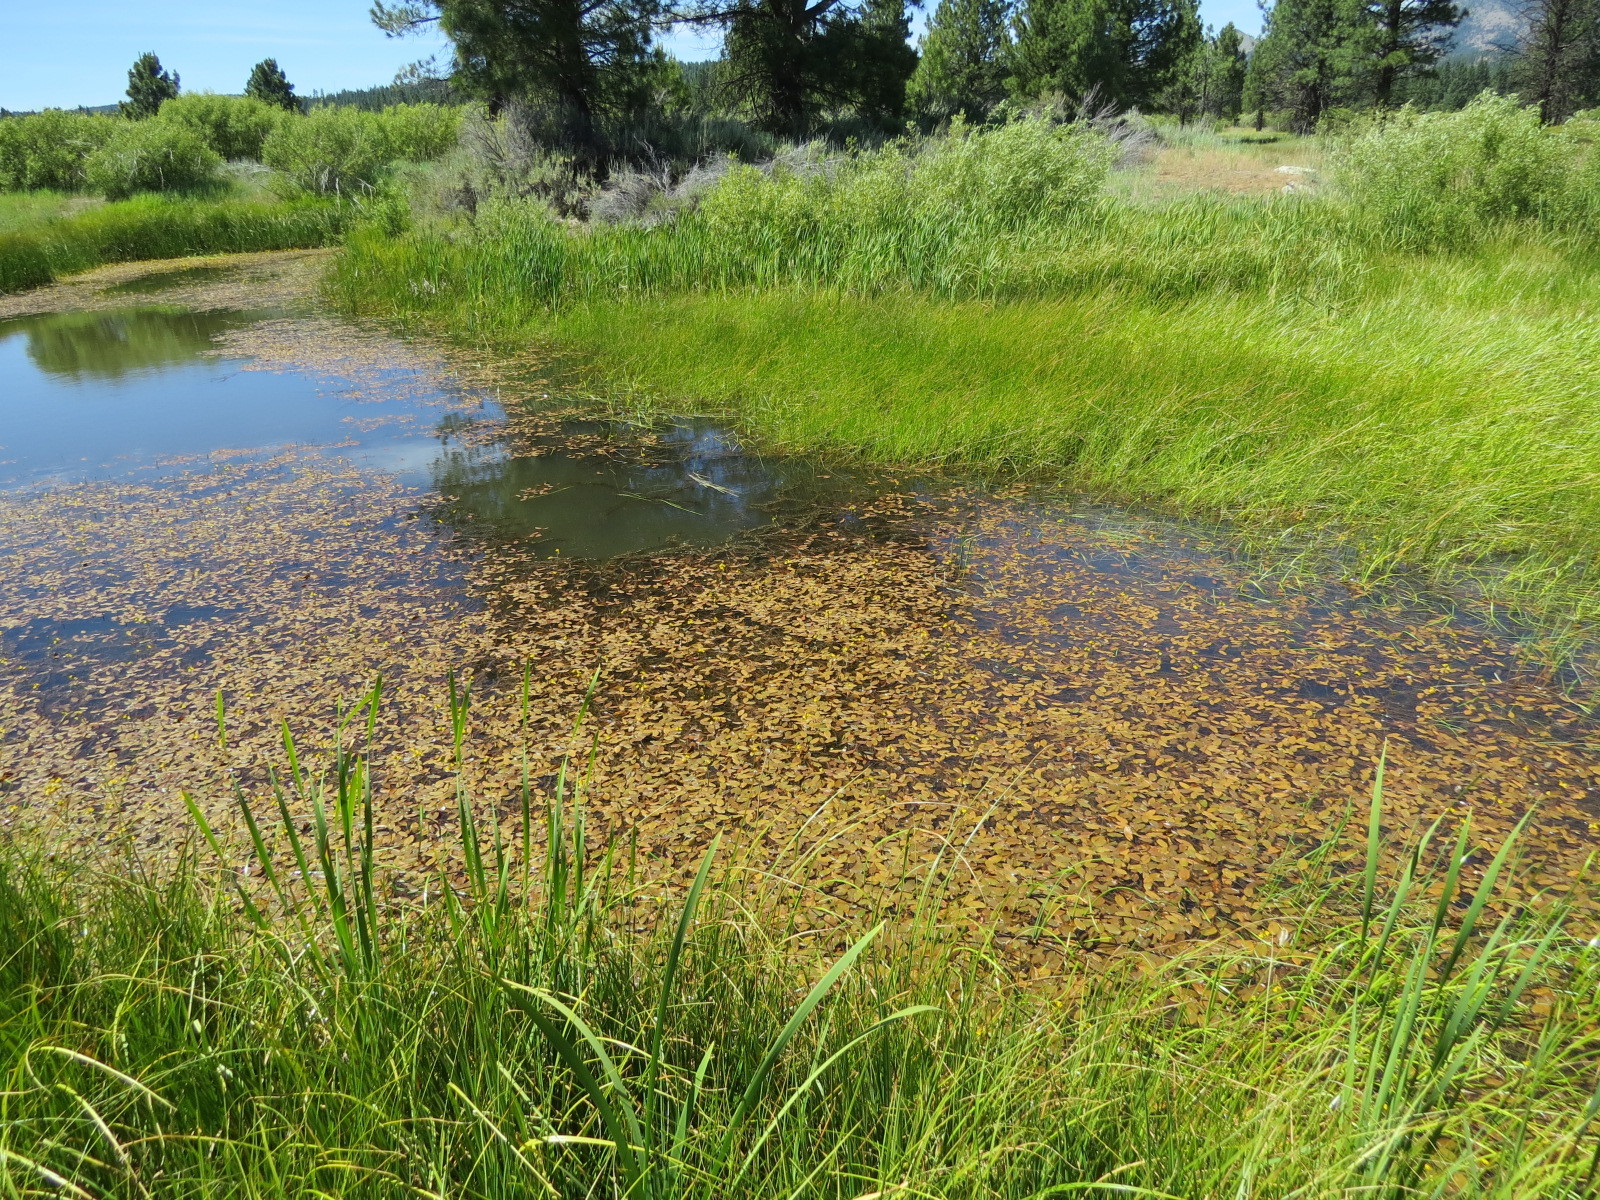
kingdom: Plantae
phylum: Tracheophyta
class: Liliopsida
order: Alismatales
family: Potamogetonaceae
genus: Potamogeton
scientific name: Potamogeton natans
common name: Broad-leaved pondweed
